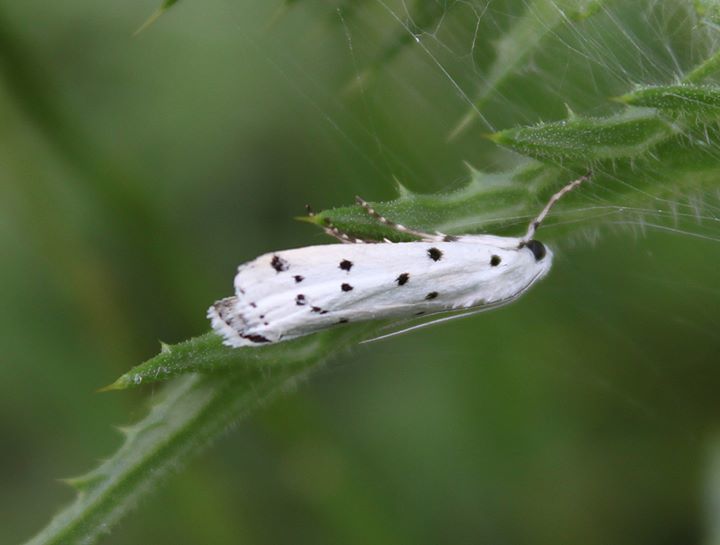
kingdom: Animalia
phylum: Arthropoda
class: Insecta
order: Lepidoptera
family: Pyralidae
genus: Myelois
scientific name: Myelois circumvoluta
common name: Thistle ermine
